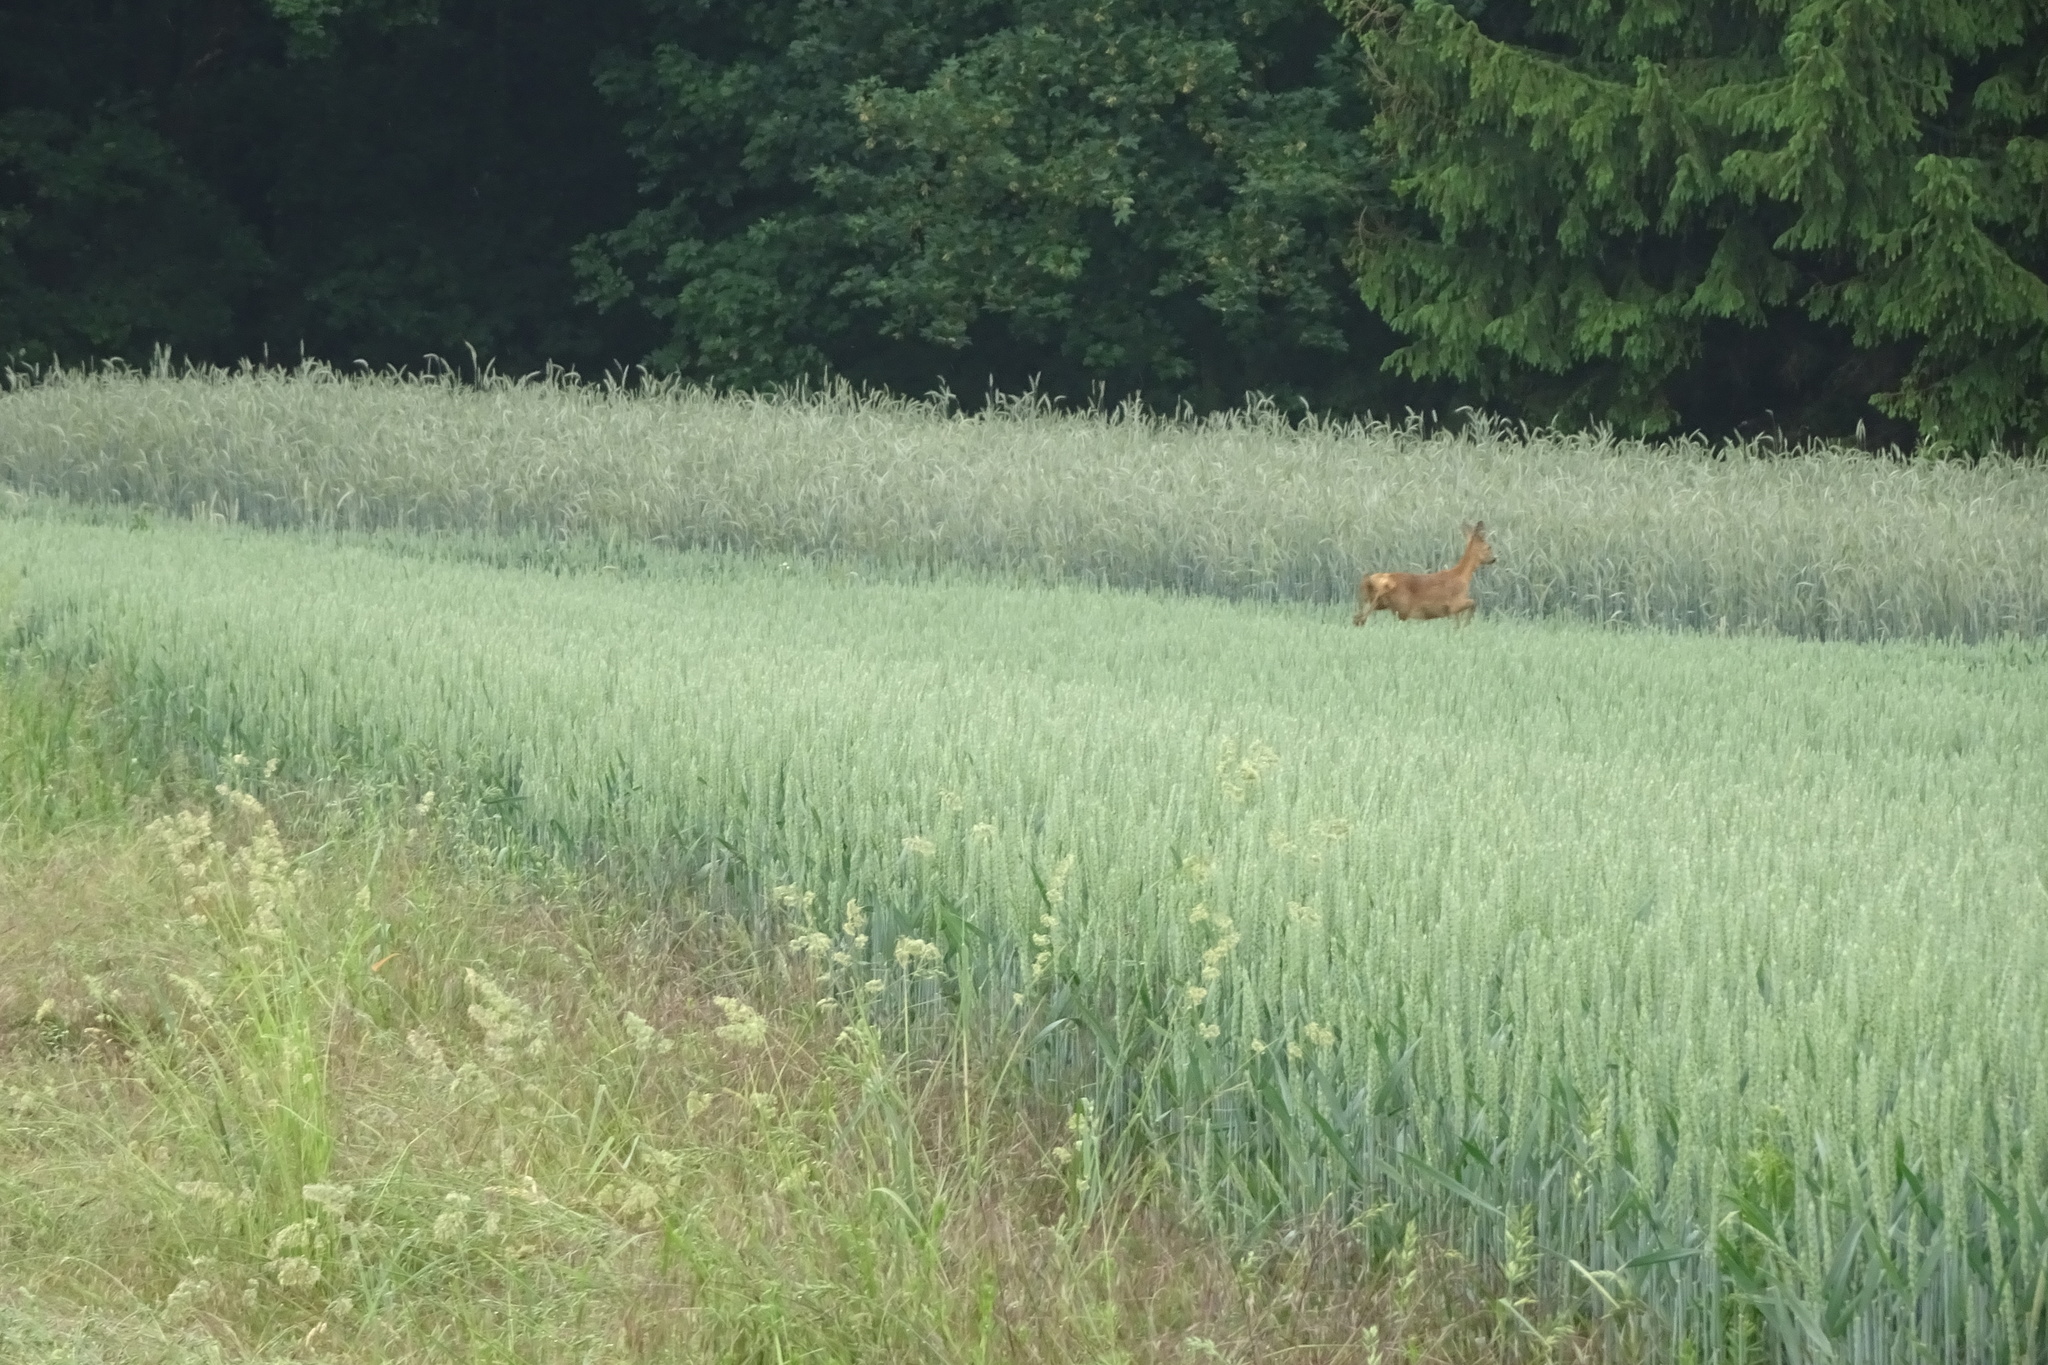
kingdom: Animalia
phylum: Chordata
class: Mammalia
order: Artiodactyla
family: Cervidae
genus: Capreolus
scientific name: Capreolus capreolus
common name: Western roe deer
